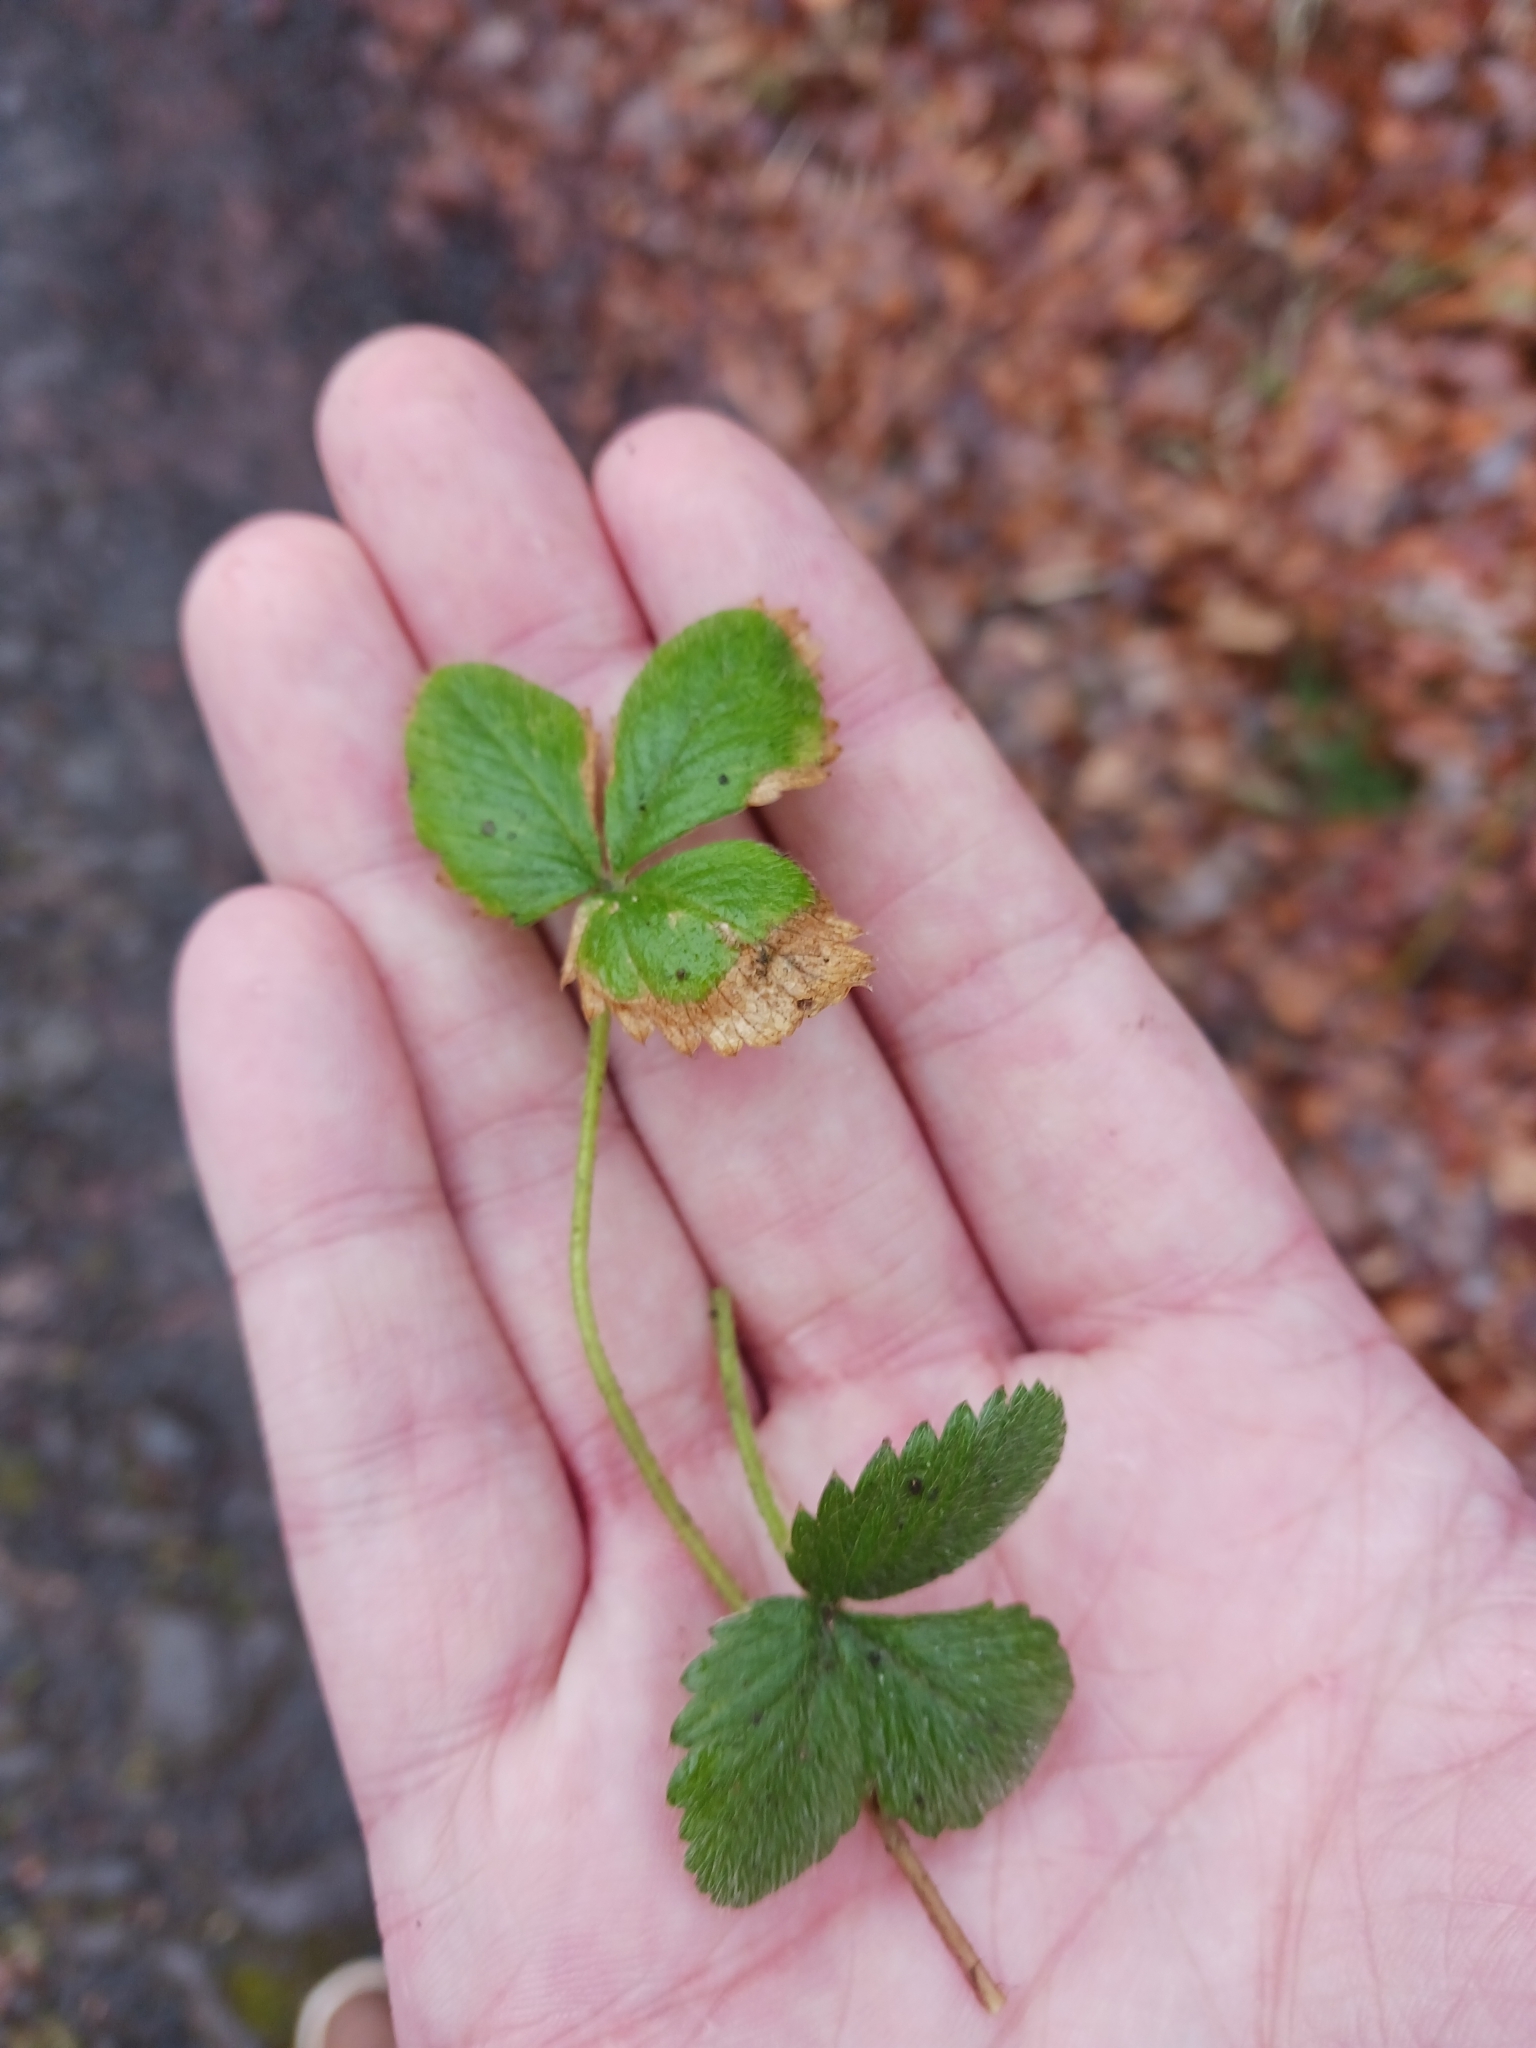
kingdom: Plantae
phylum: Tracheophyta
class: Magnoliopsida
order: Rosales
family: Rosaceae
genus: Fragaria
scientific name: Fragaria vesca
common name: Wild strawberry
